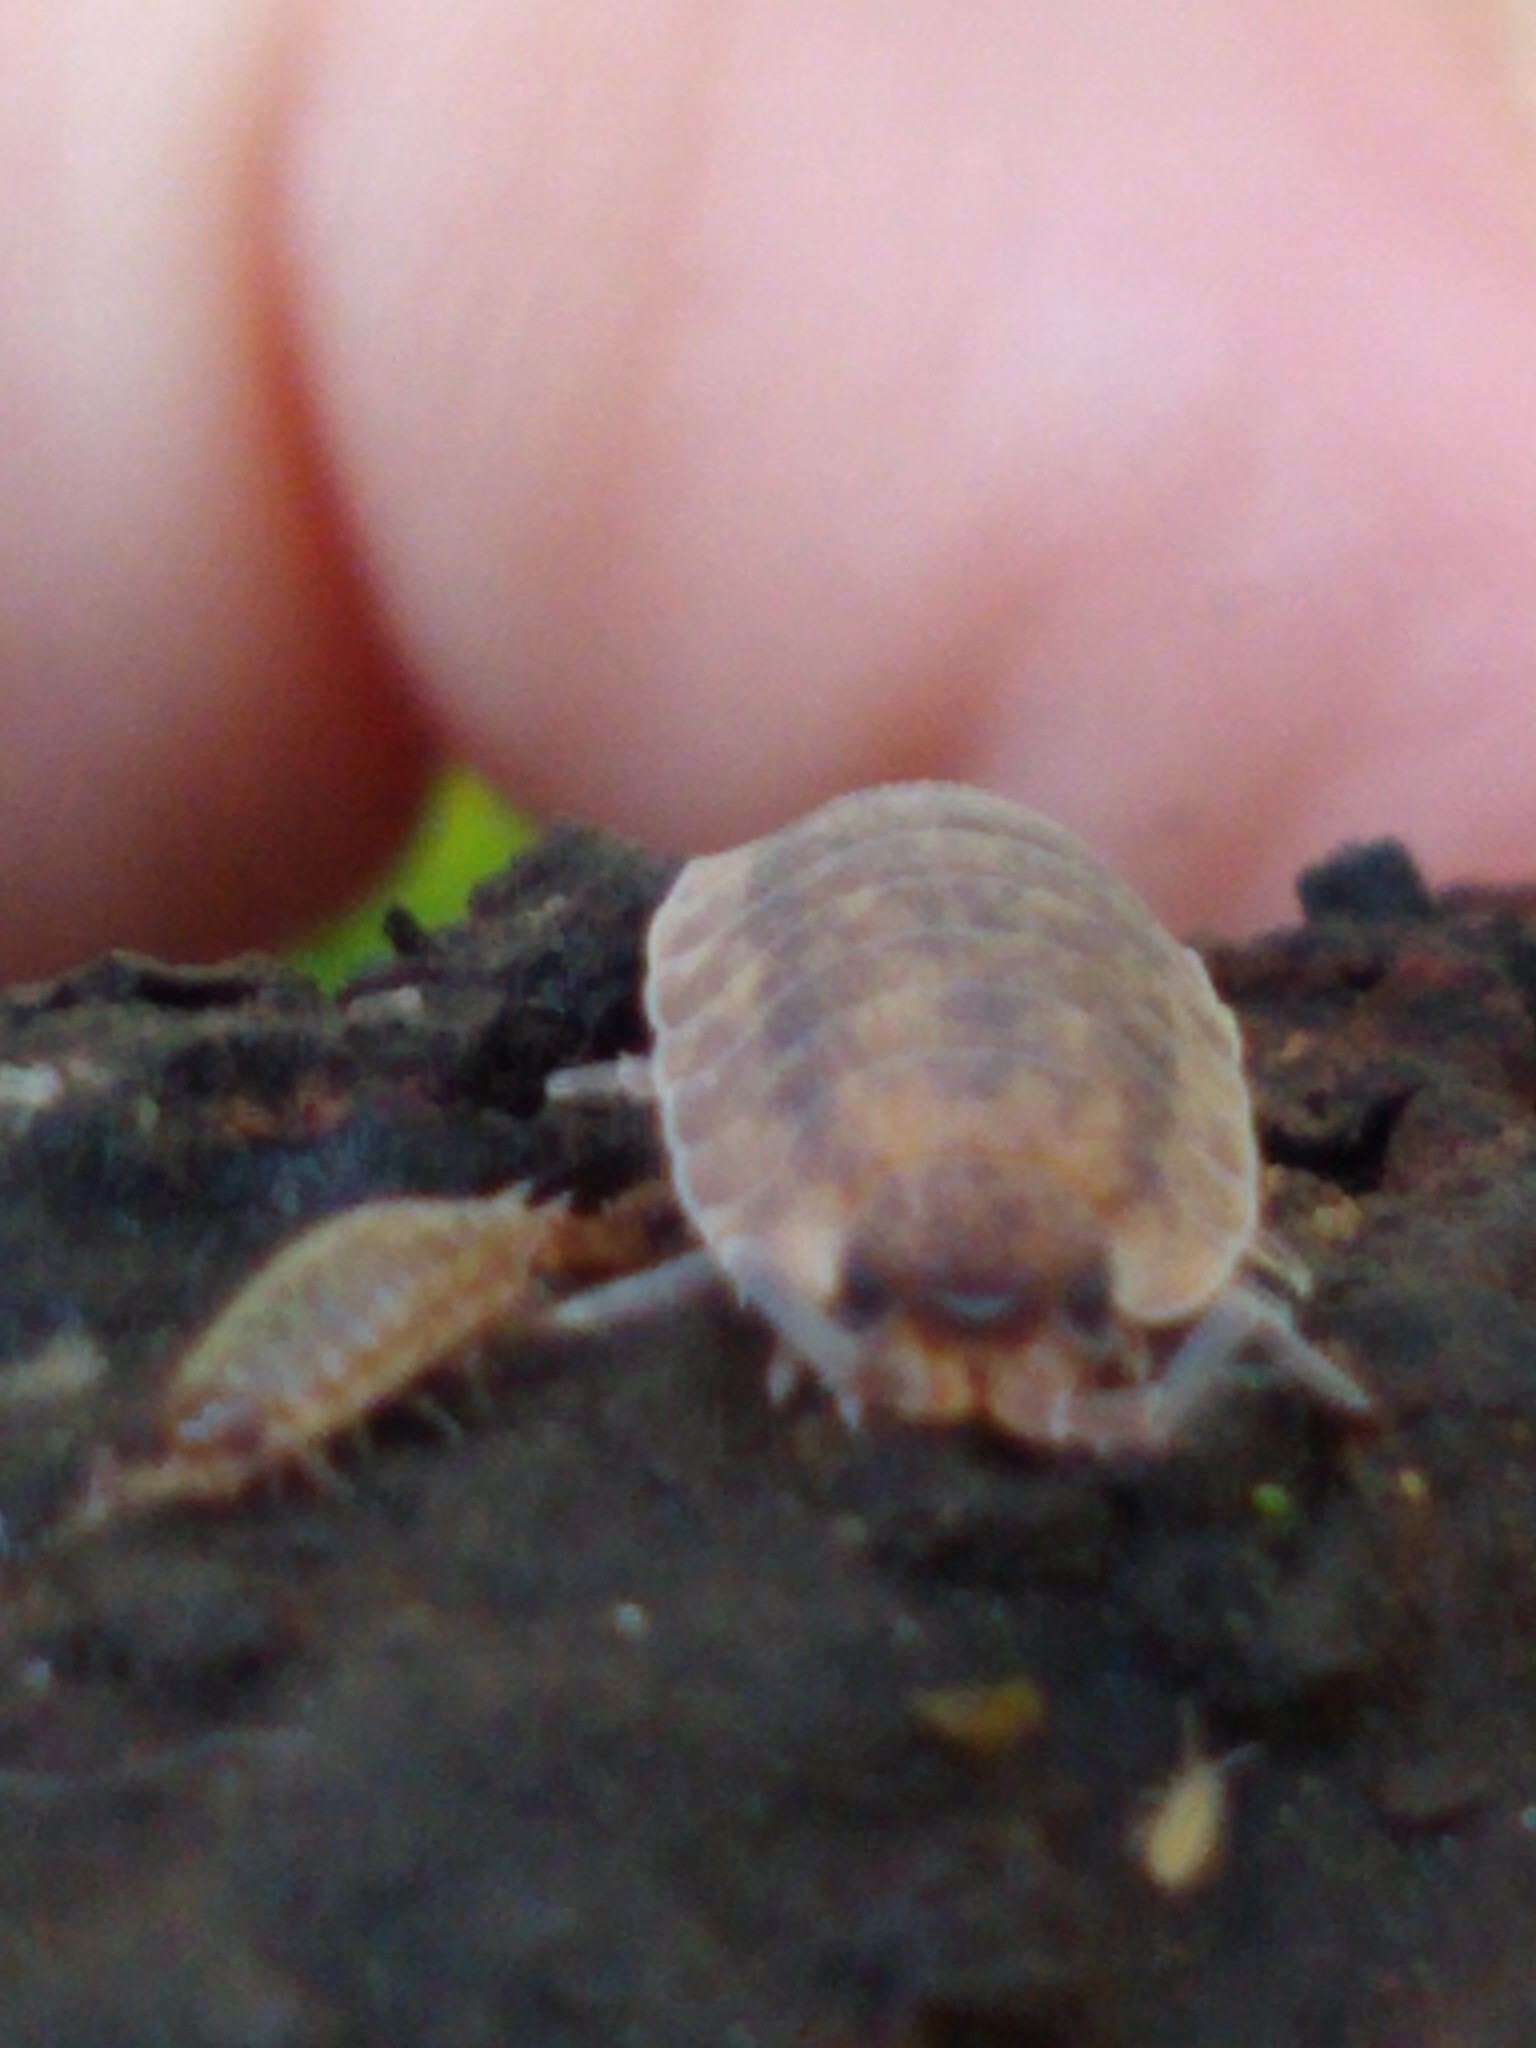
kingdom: Animalia
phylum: Arthropoda
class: Malacostraca
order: Isopoda
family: Porcellionidae
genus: Porcellio
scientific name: Porcellio scaber
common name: Common rough woodlouse
